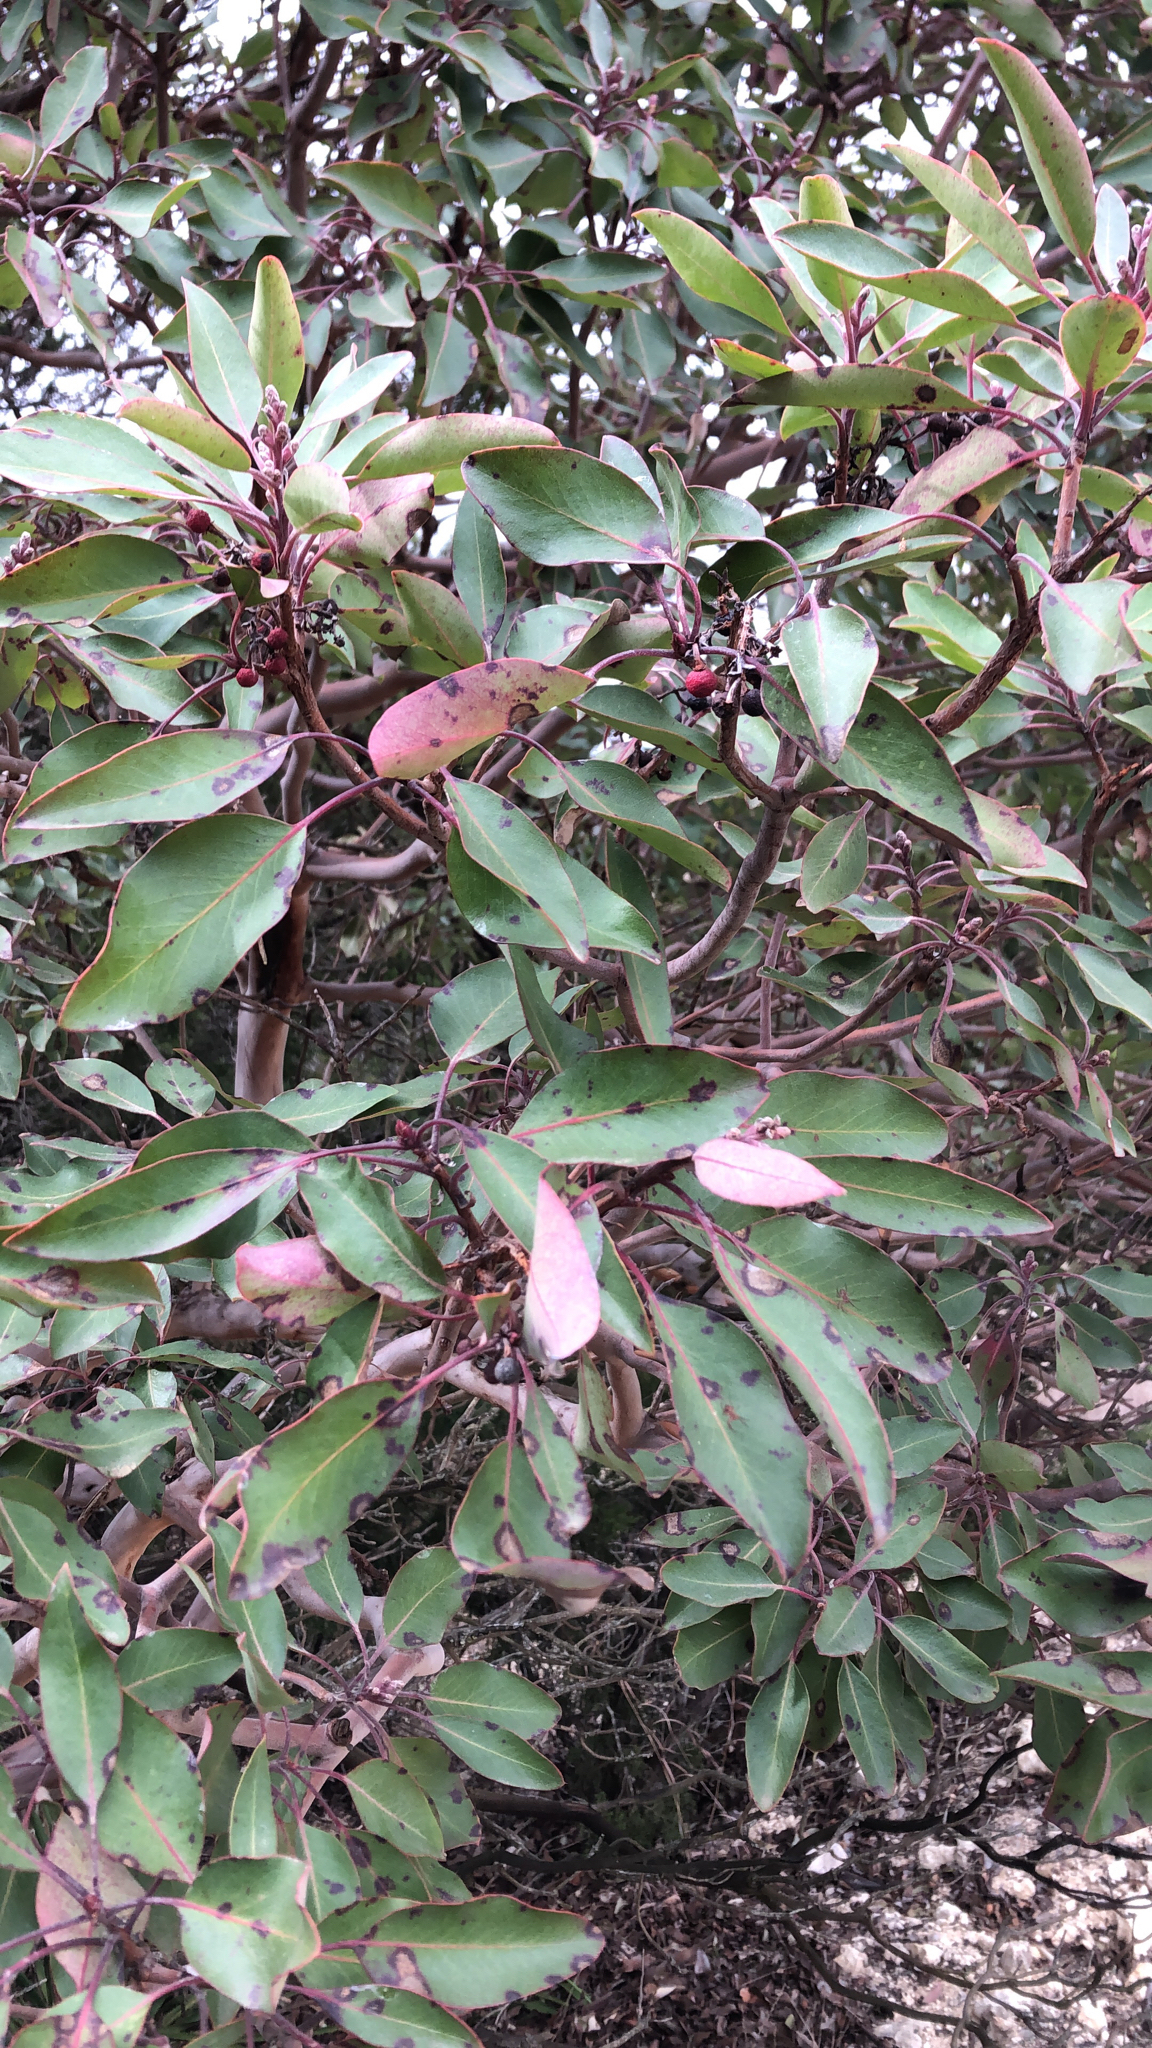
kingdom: Plantae
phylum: Tracheophyta
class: Magnoliopsida
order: Ericales
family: Ericaceae
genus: Arbutus
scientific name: Arbutus xalapensis
